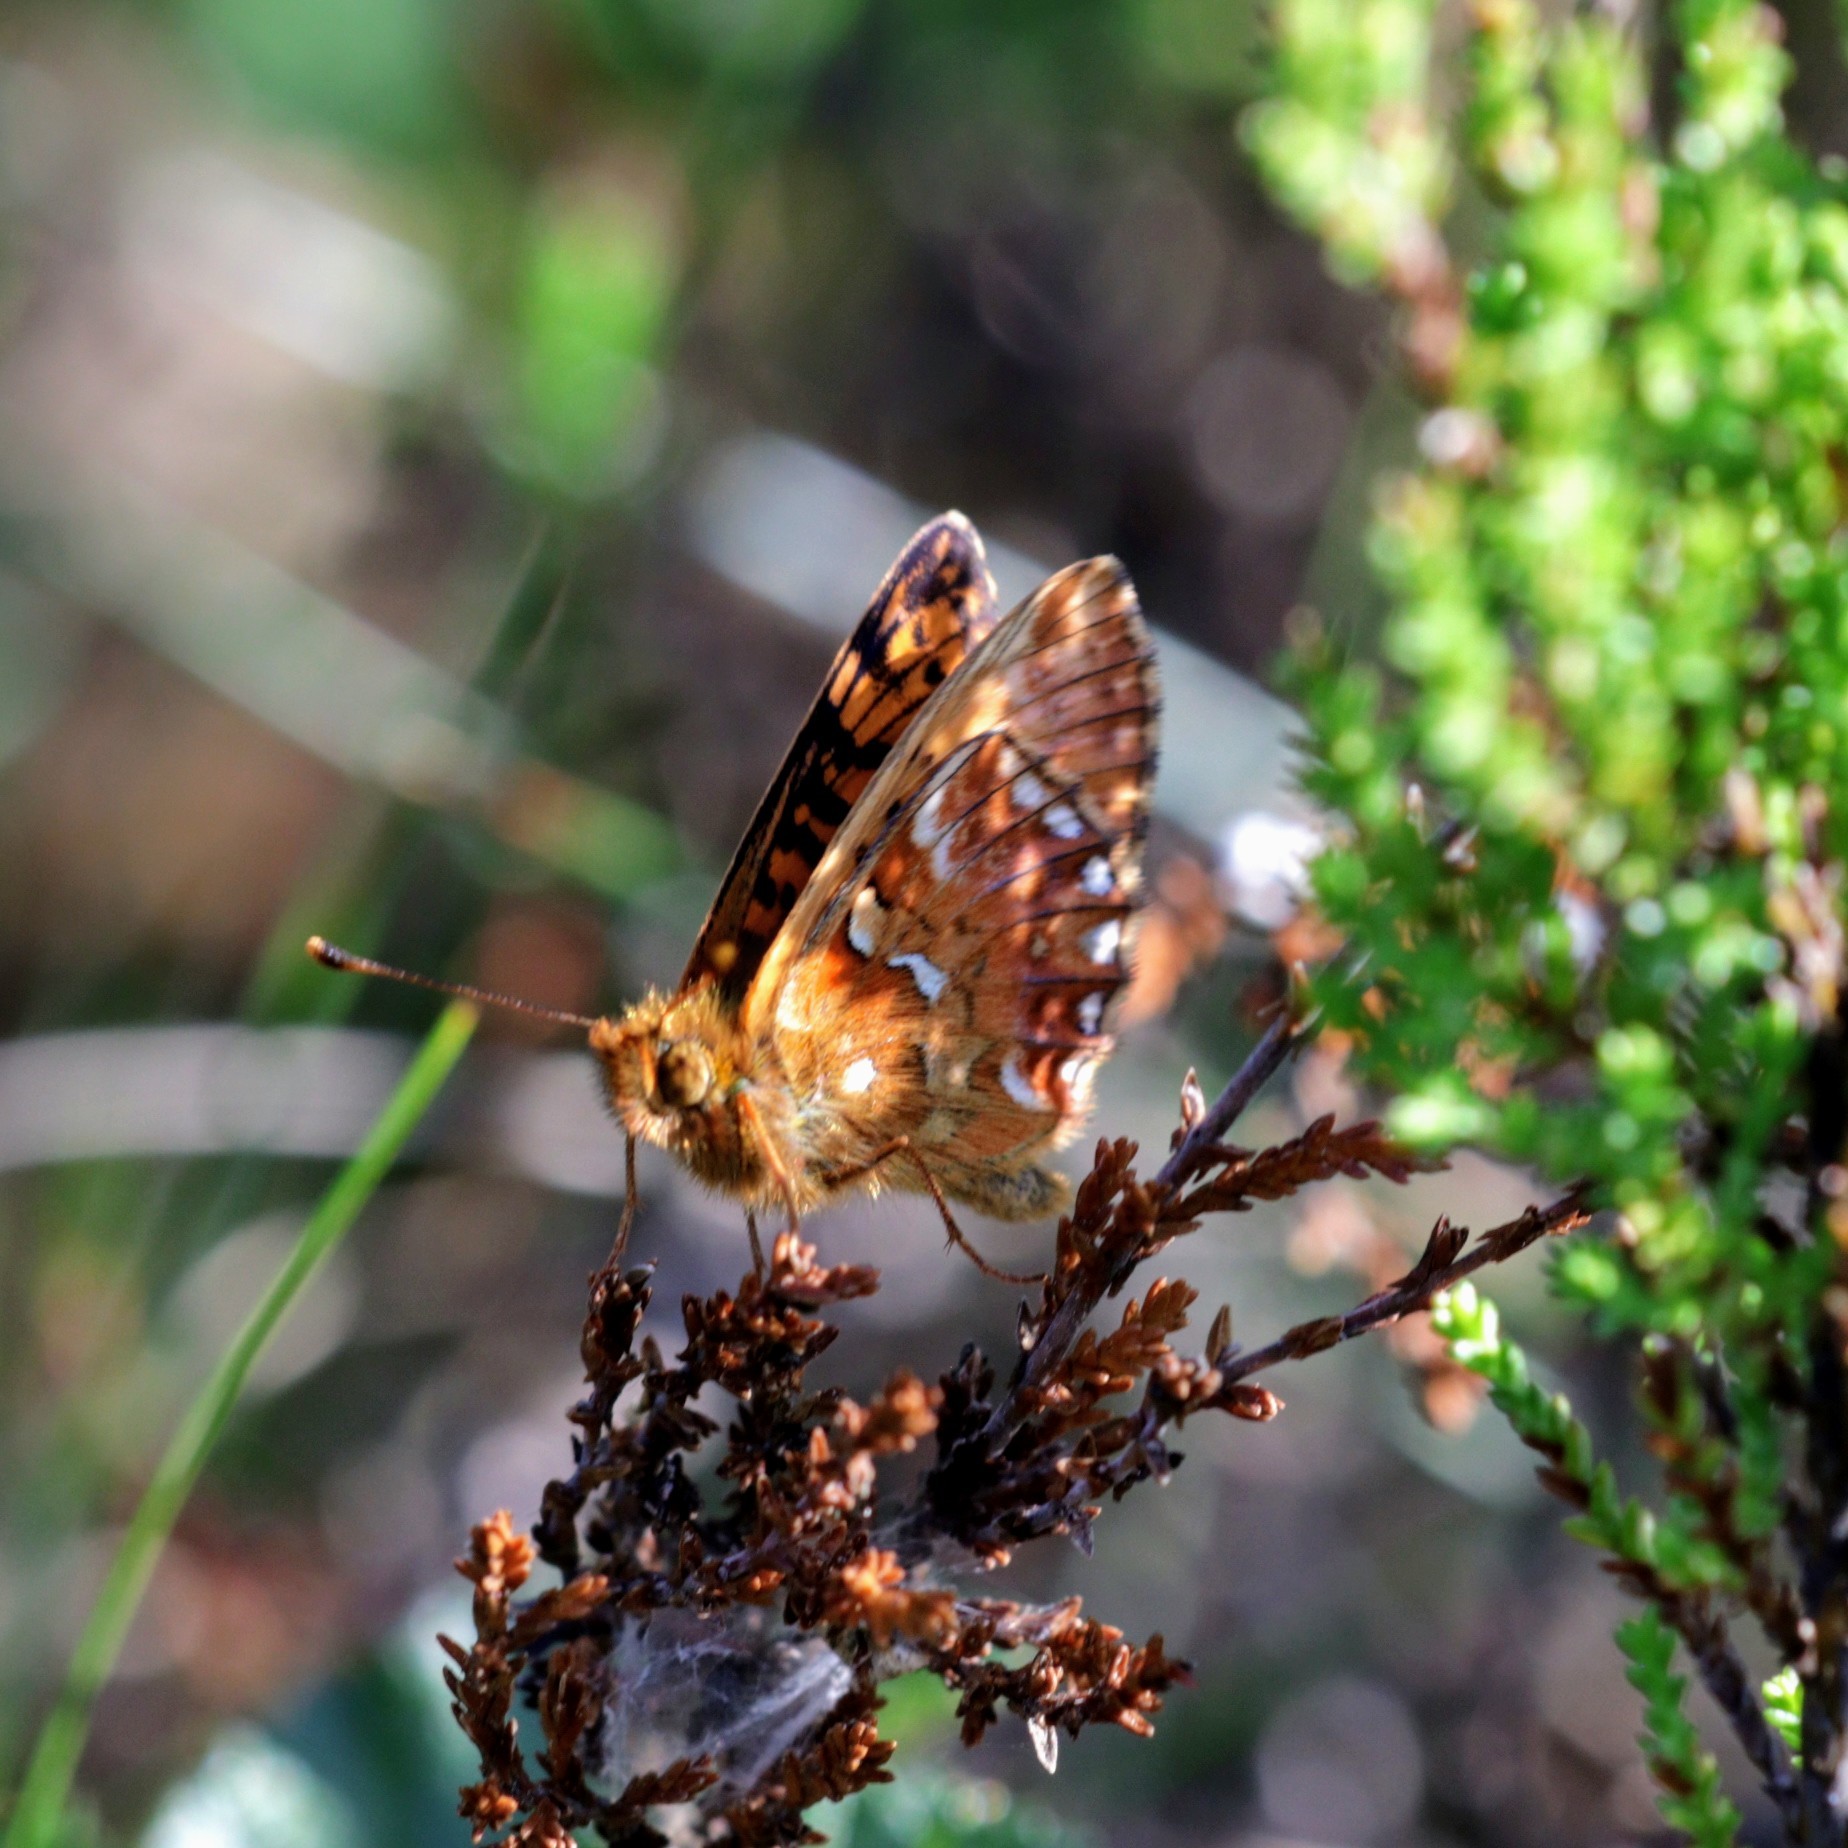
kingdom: Animalia
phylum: Arthropoda
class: Insecta
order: Lepidoptera
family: Nymphalidae
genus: Boloria
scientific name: Boloria aquilonaris
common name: Cranberry fritillary
